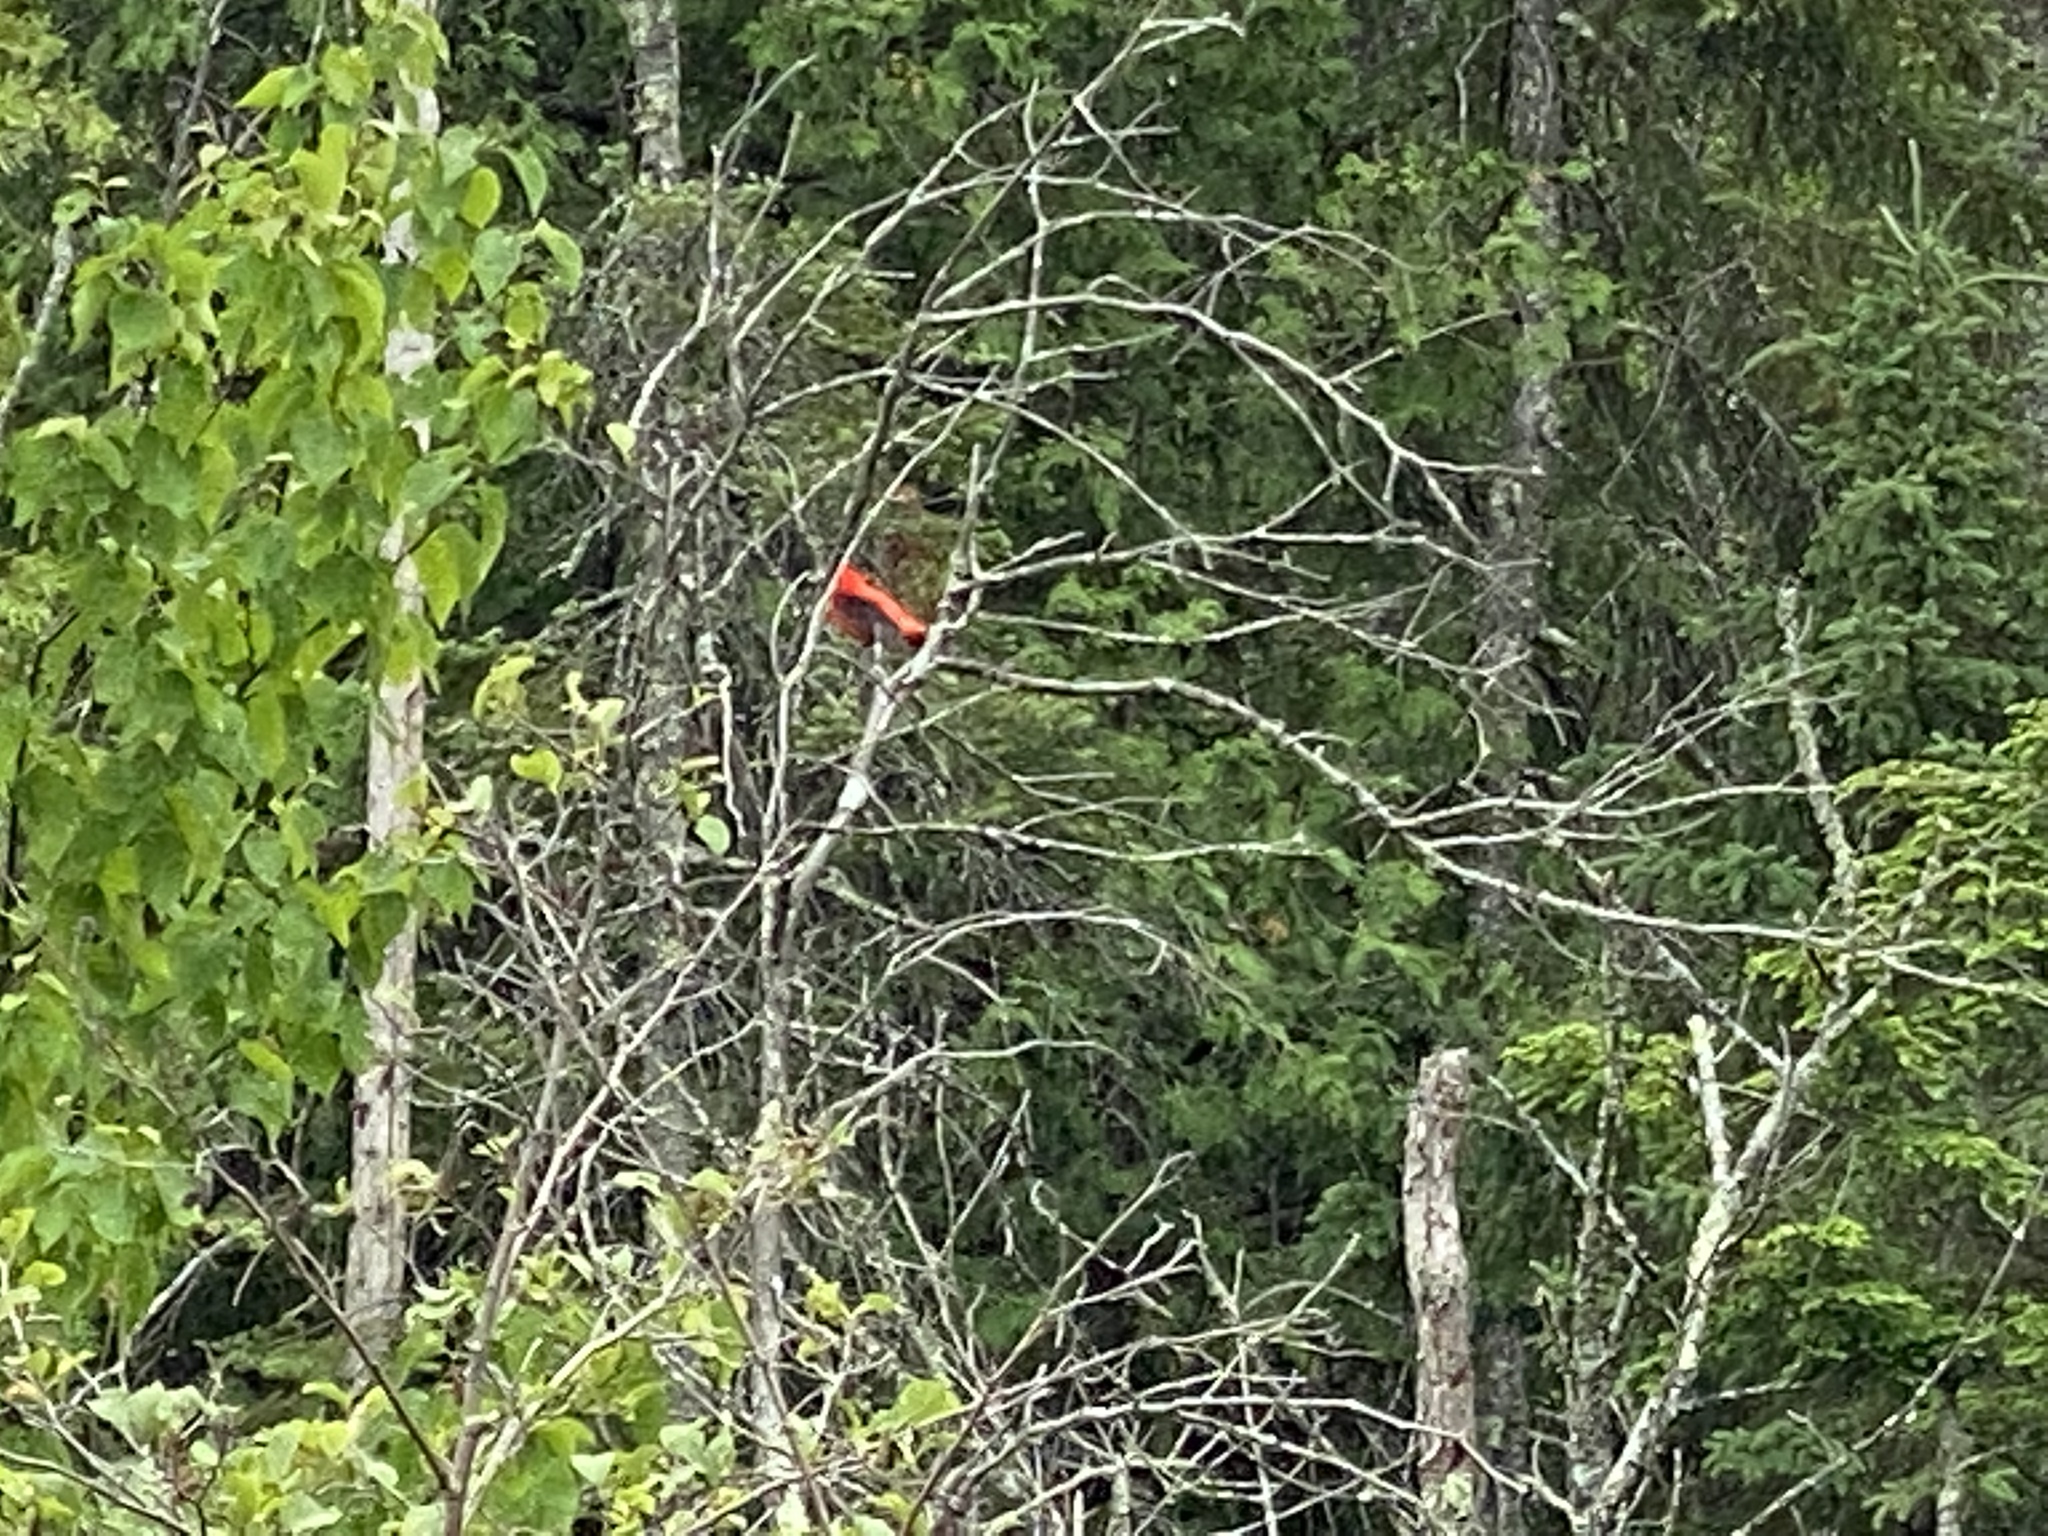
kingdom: Animalia
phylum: Chordata
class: Aves
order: Passeriformes
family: Cardinalidae
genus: Piranga
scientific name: Piranga olivacea
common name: Scarlet tanager
